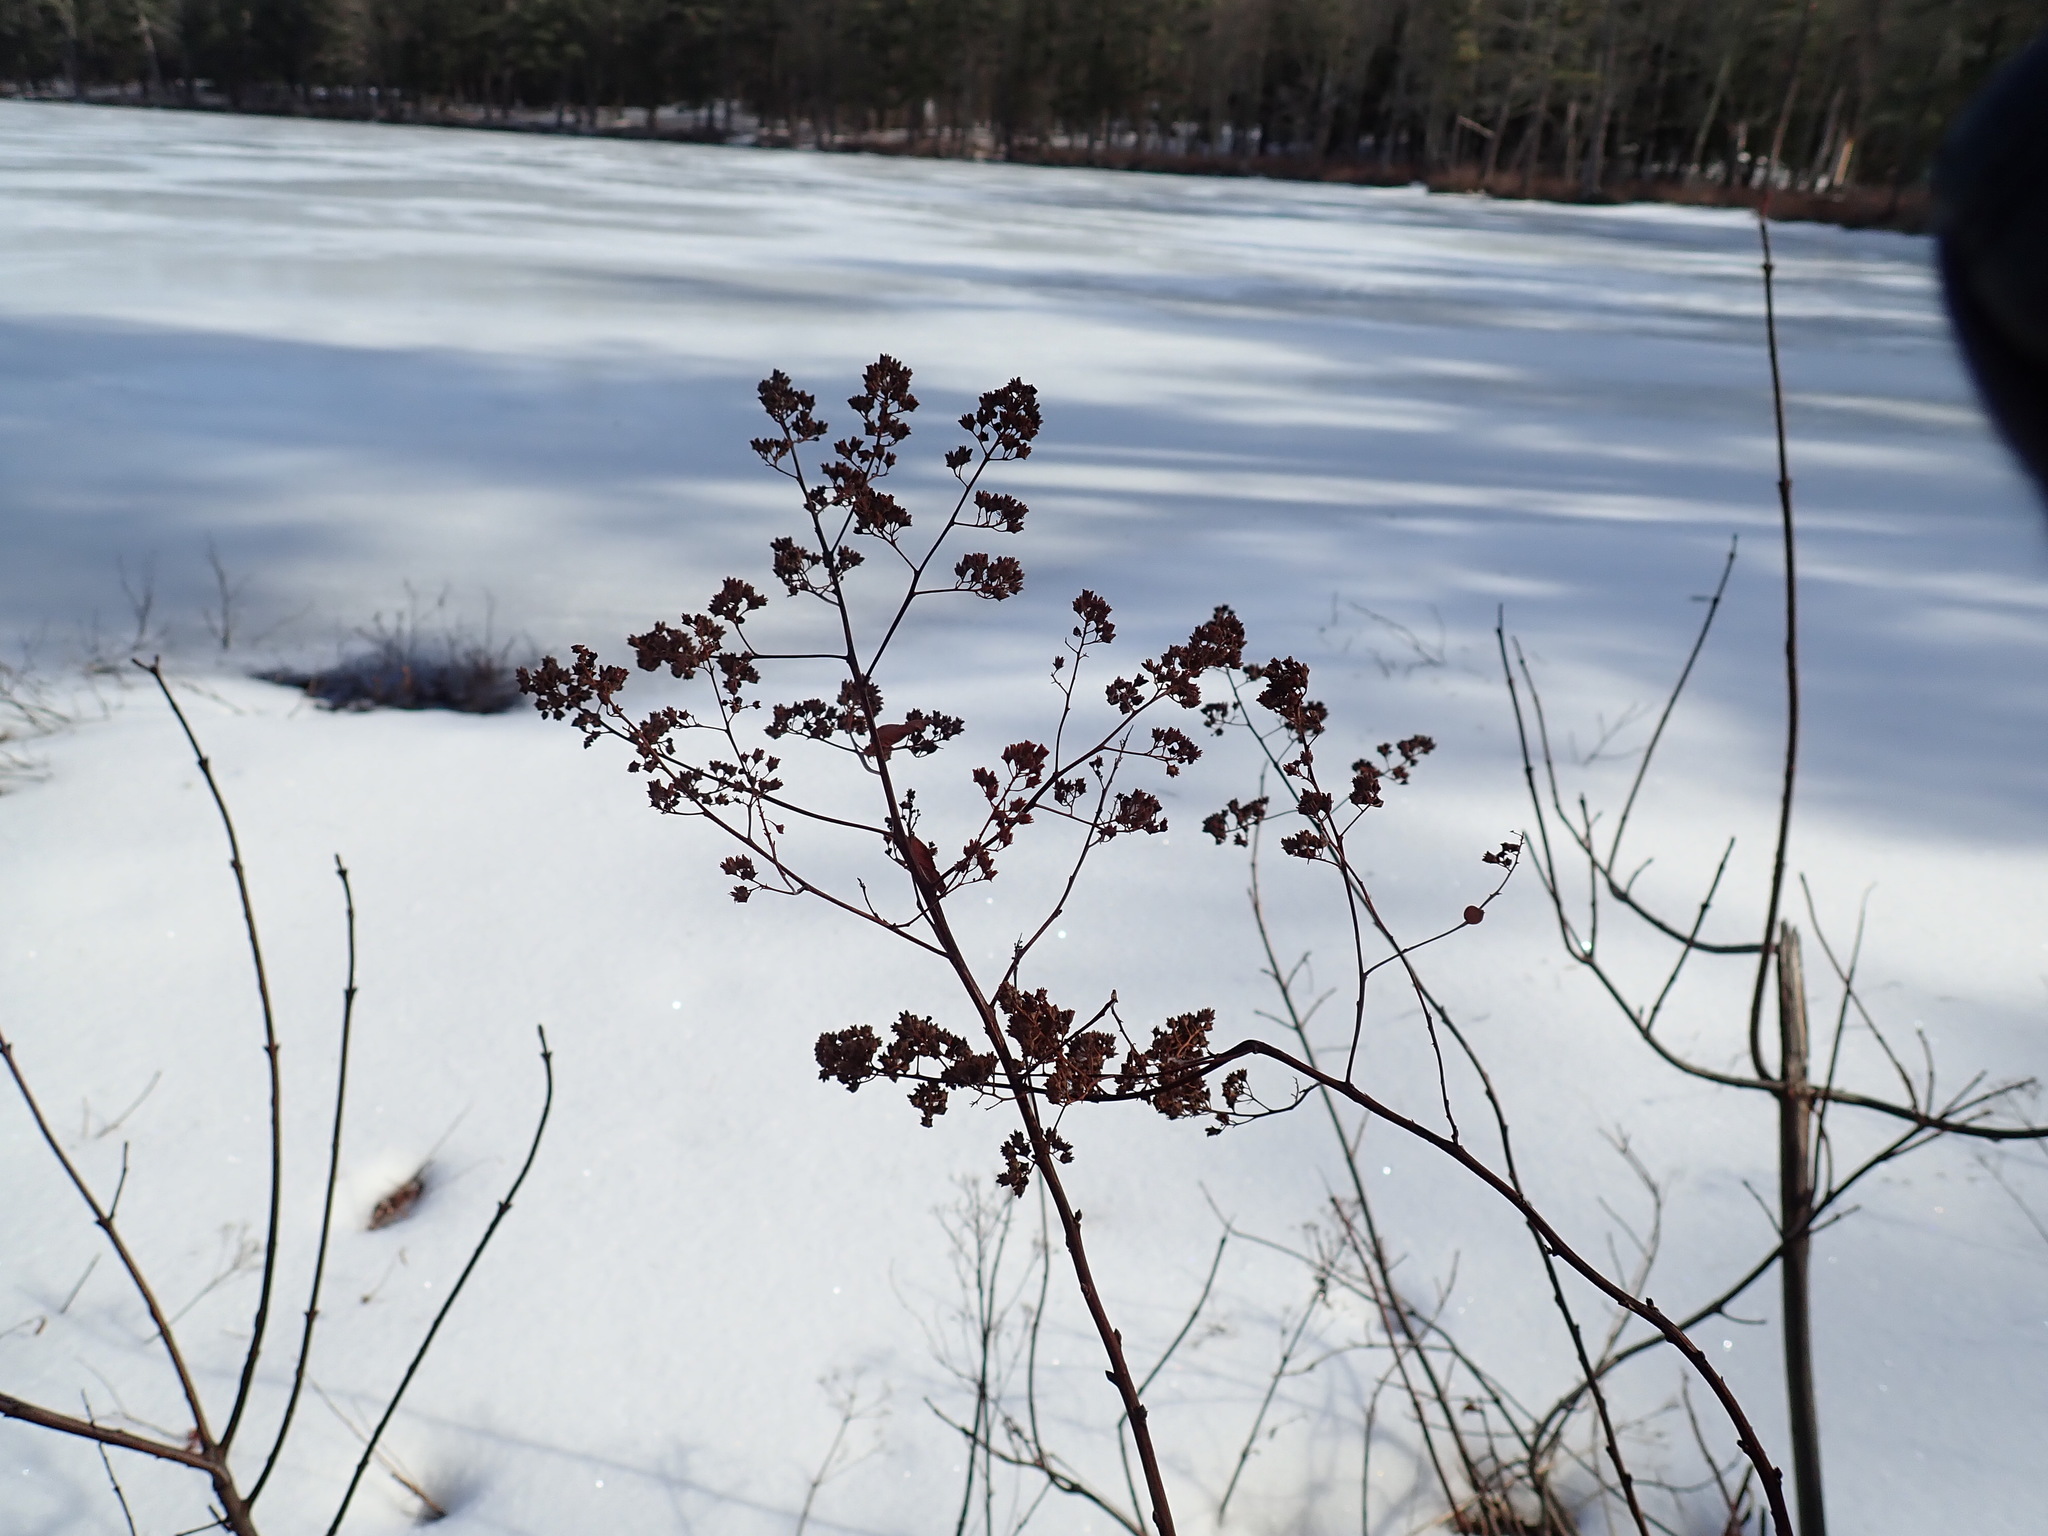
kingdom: Plantae
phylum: Tracheophyta
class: Magnoliopsida
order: Rosales
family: Rosaceae
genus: Spiraea
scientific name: Spiraea alba
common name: Pale bridewort
